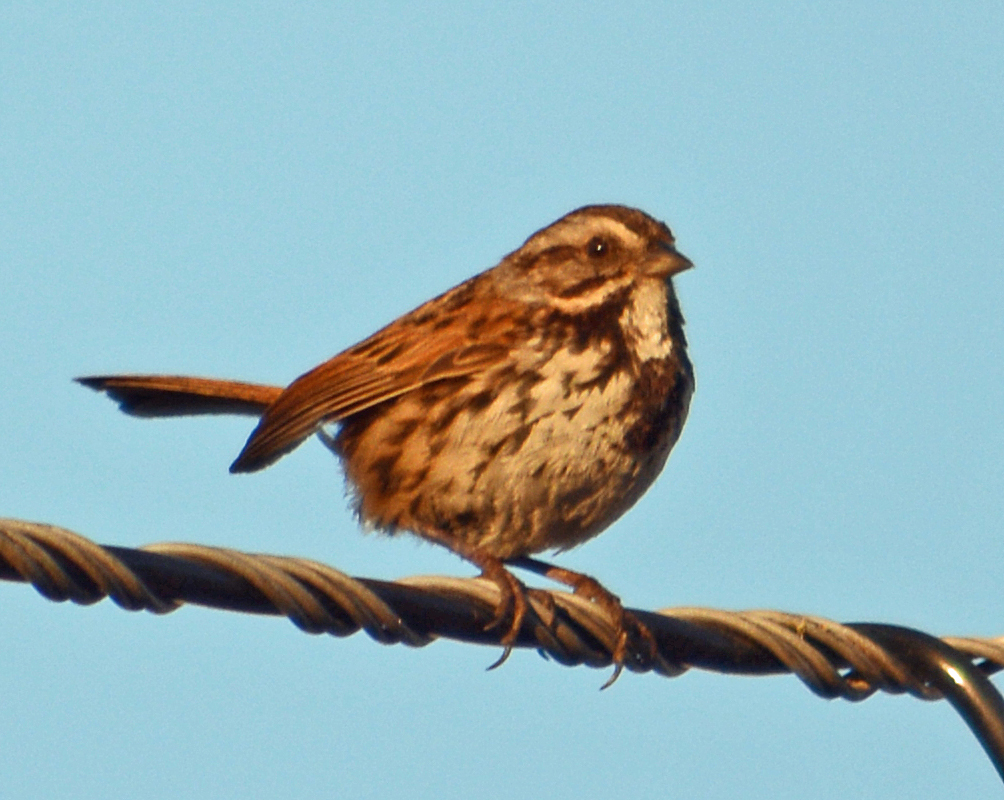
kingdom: Animalia
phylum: Chordata
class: Aves
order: Passeriformes
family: Passerellidae
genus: Melospiza
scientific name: Melospiza melodia
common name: Song sparrow
